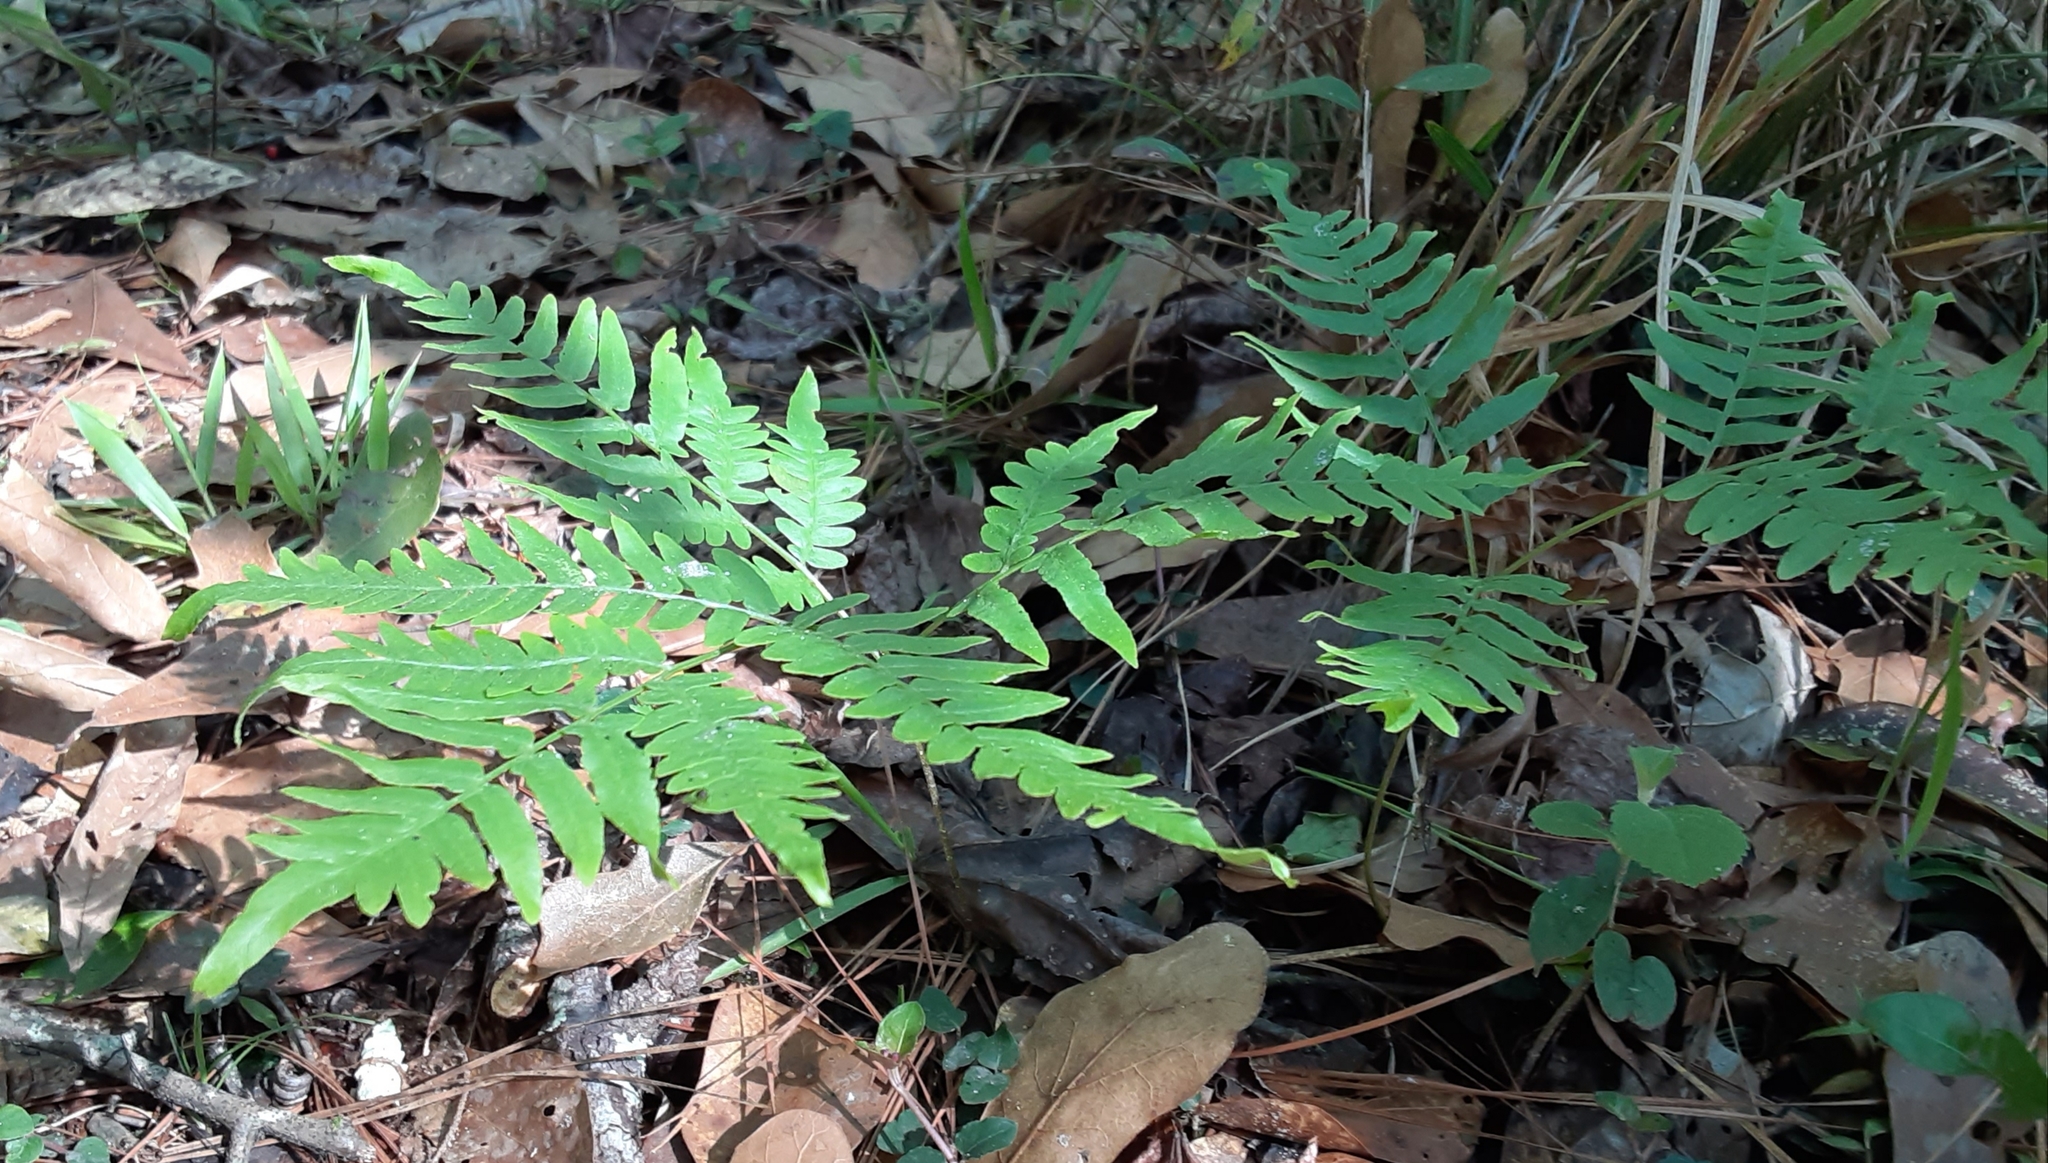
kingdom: Plantae
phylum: Tracheophyta
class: Polypodiopsida
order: Polypodiales
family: Dennstaedtiaceae
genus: Pteridium
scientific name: Pteridium aquilinum
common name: Bracken
